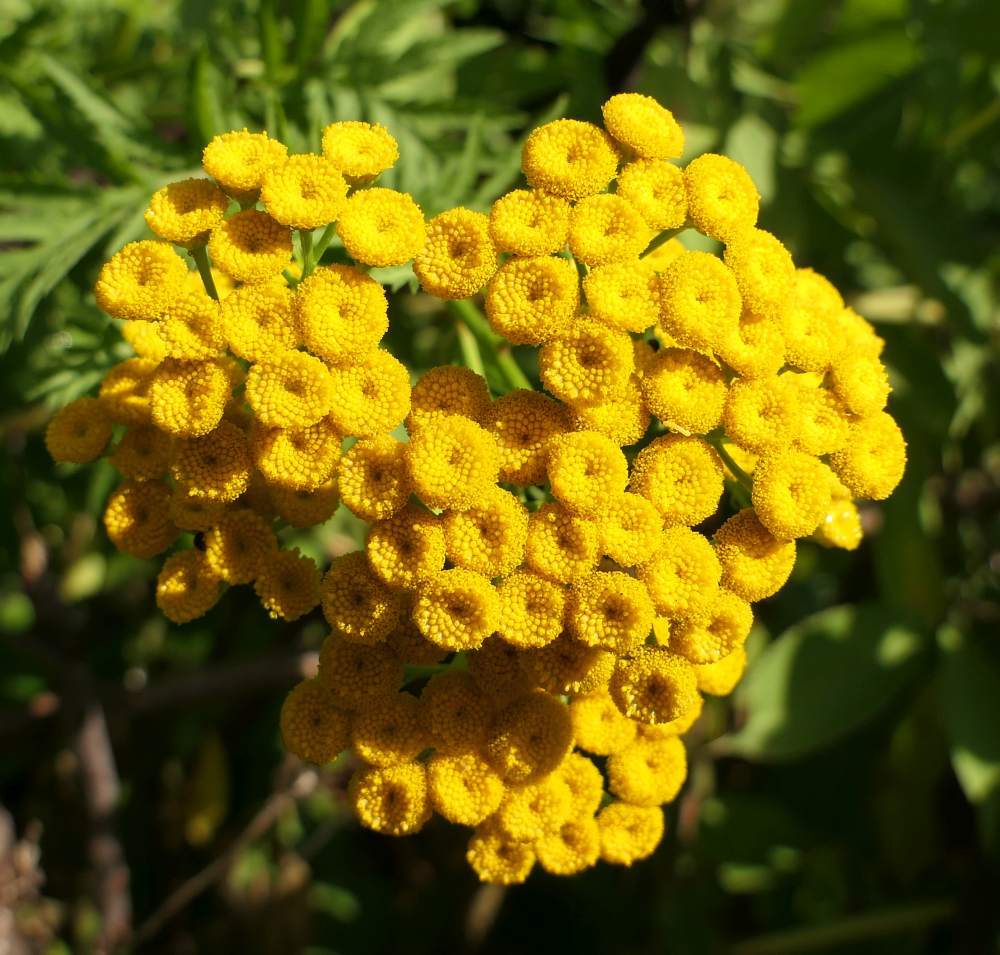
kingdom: Plantae
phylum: Tracheophyta
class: Magnoliopsida
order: Asterales
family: Asteraceae
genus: Tanacetum
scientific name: Tanacetum vulgare
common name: Common tansy
